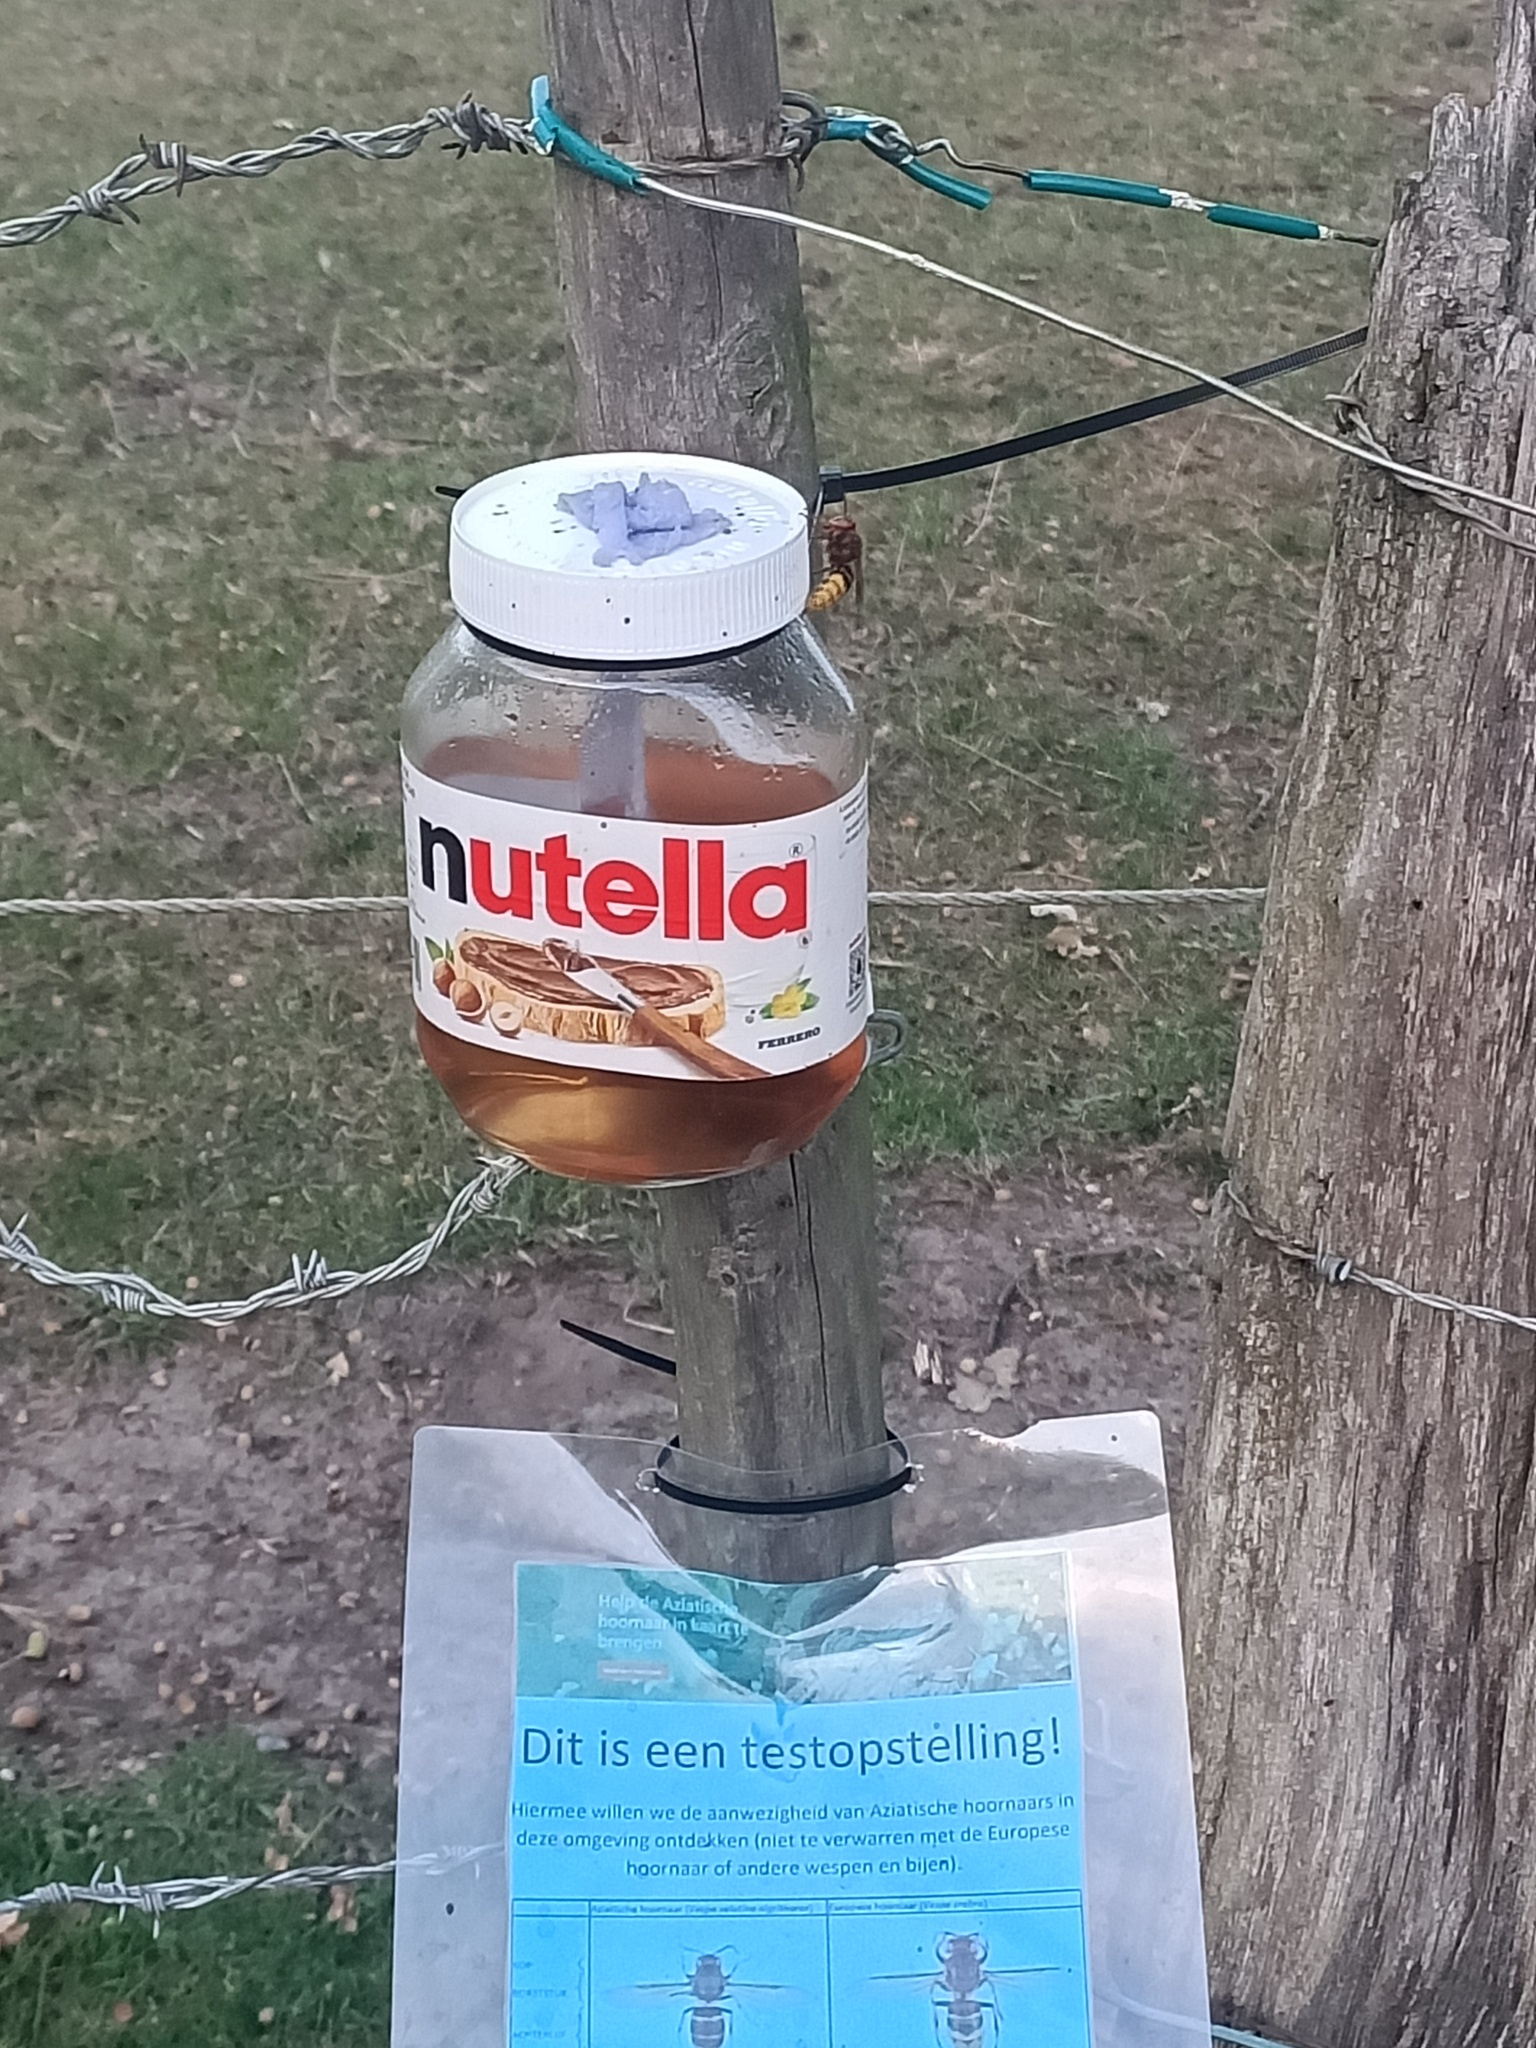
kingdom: Animalia
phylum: Arthropoda
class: Insecta
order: Hymenoptera
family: Vespidae
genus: Vespa
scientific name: Vespa crabro
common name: Hornet
